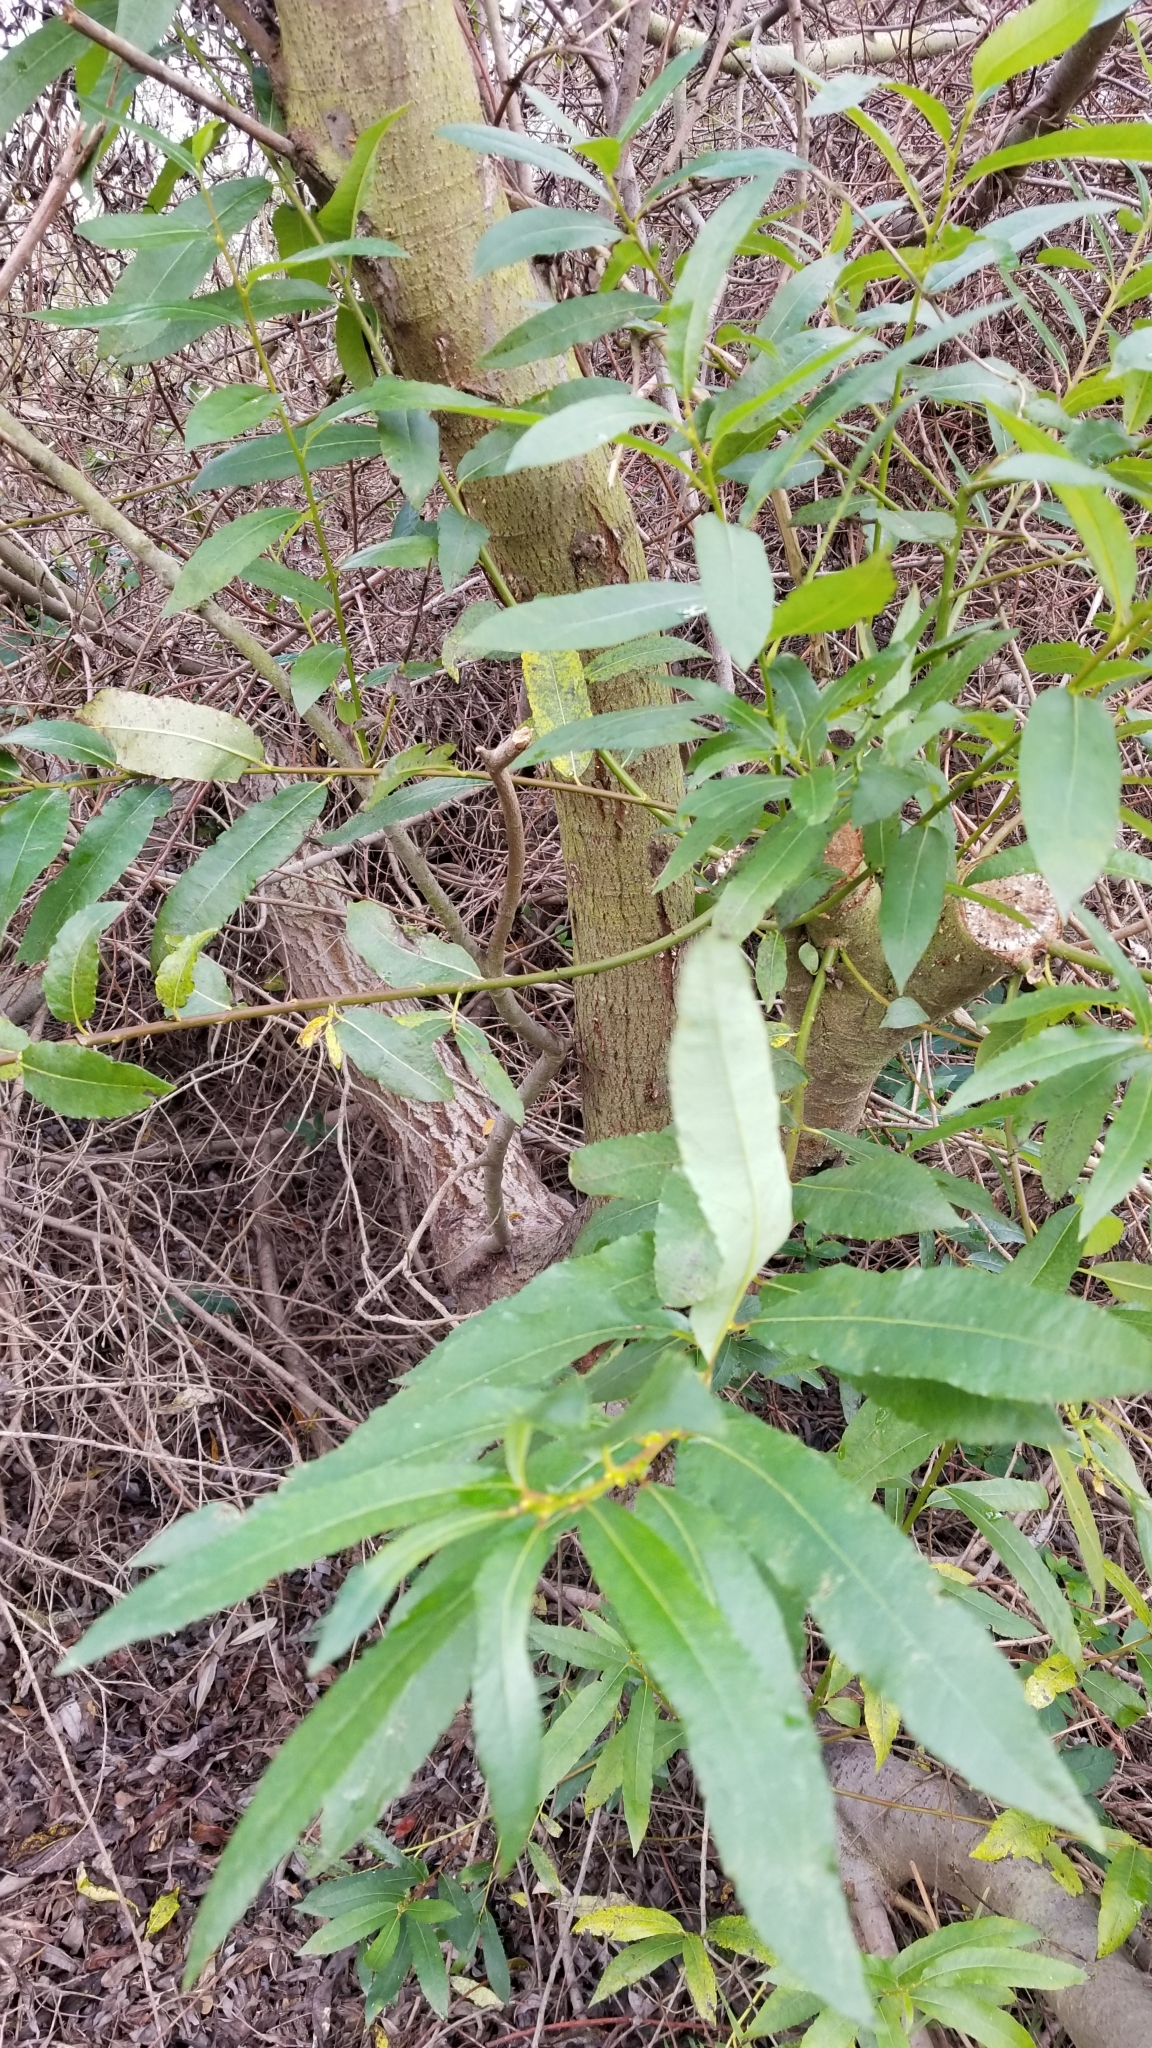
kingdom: Plantae
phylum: Tracheophyta
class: Magnoliopsida
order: Malpighiales
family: Salicaceae
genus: Salix
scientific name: Salix lasiolepis
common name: Arroyo willow
